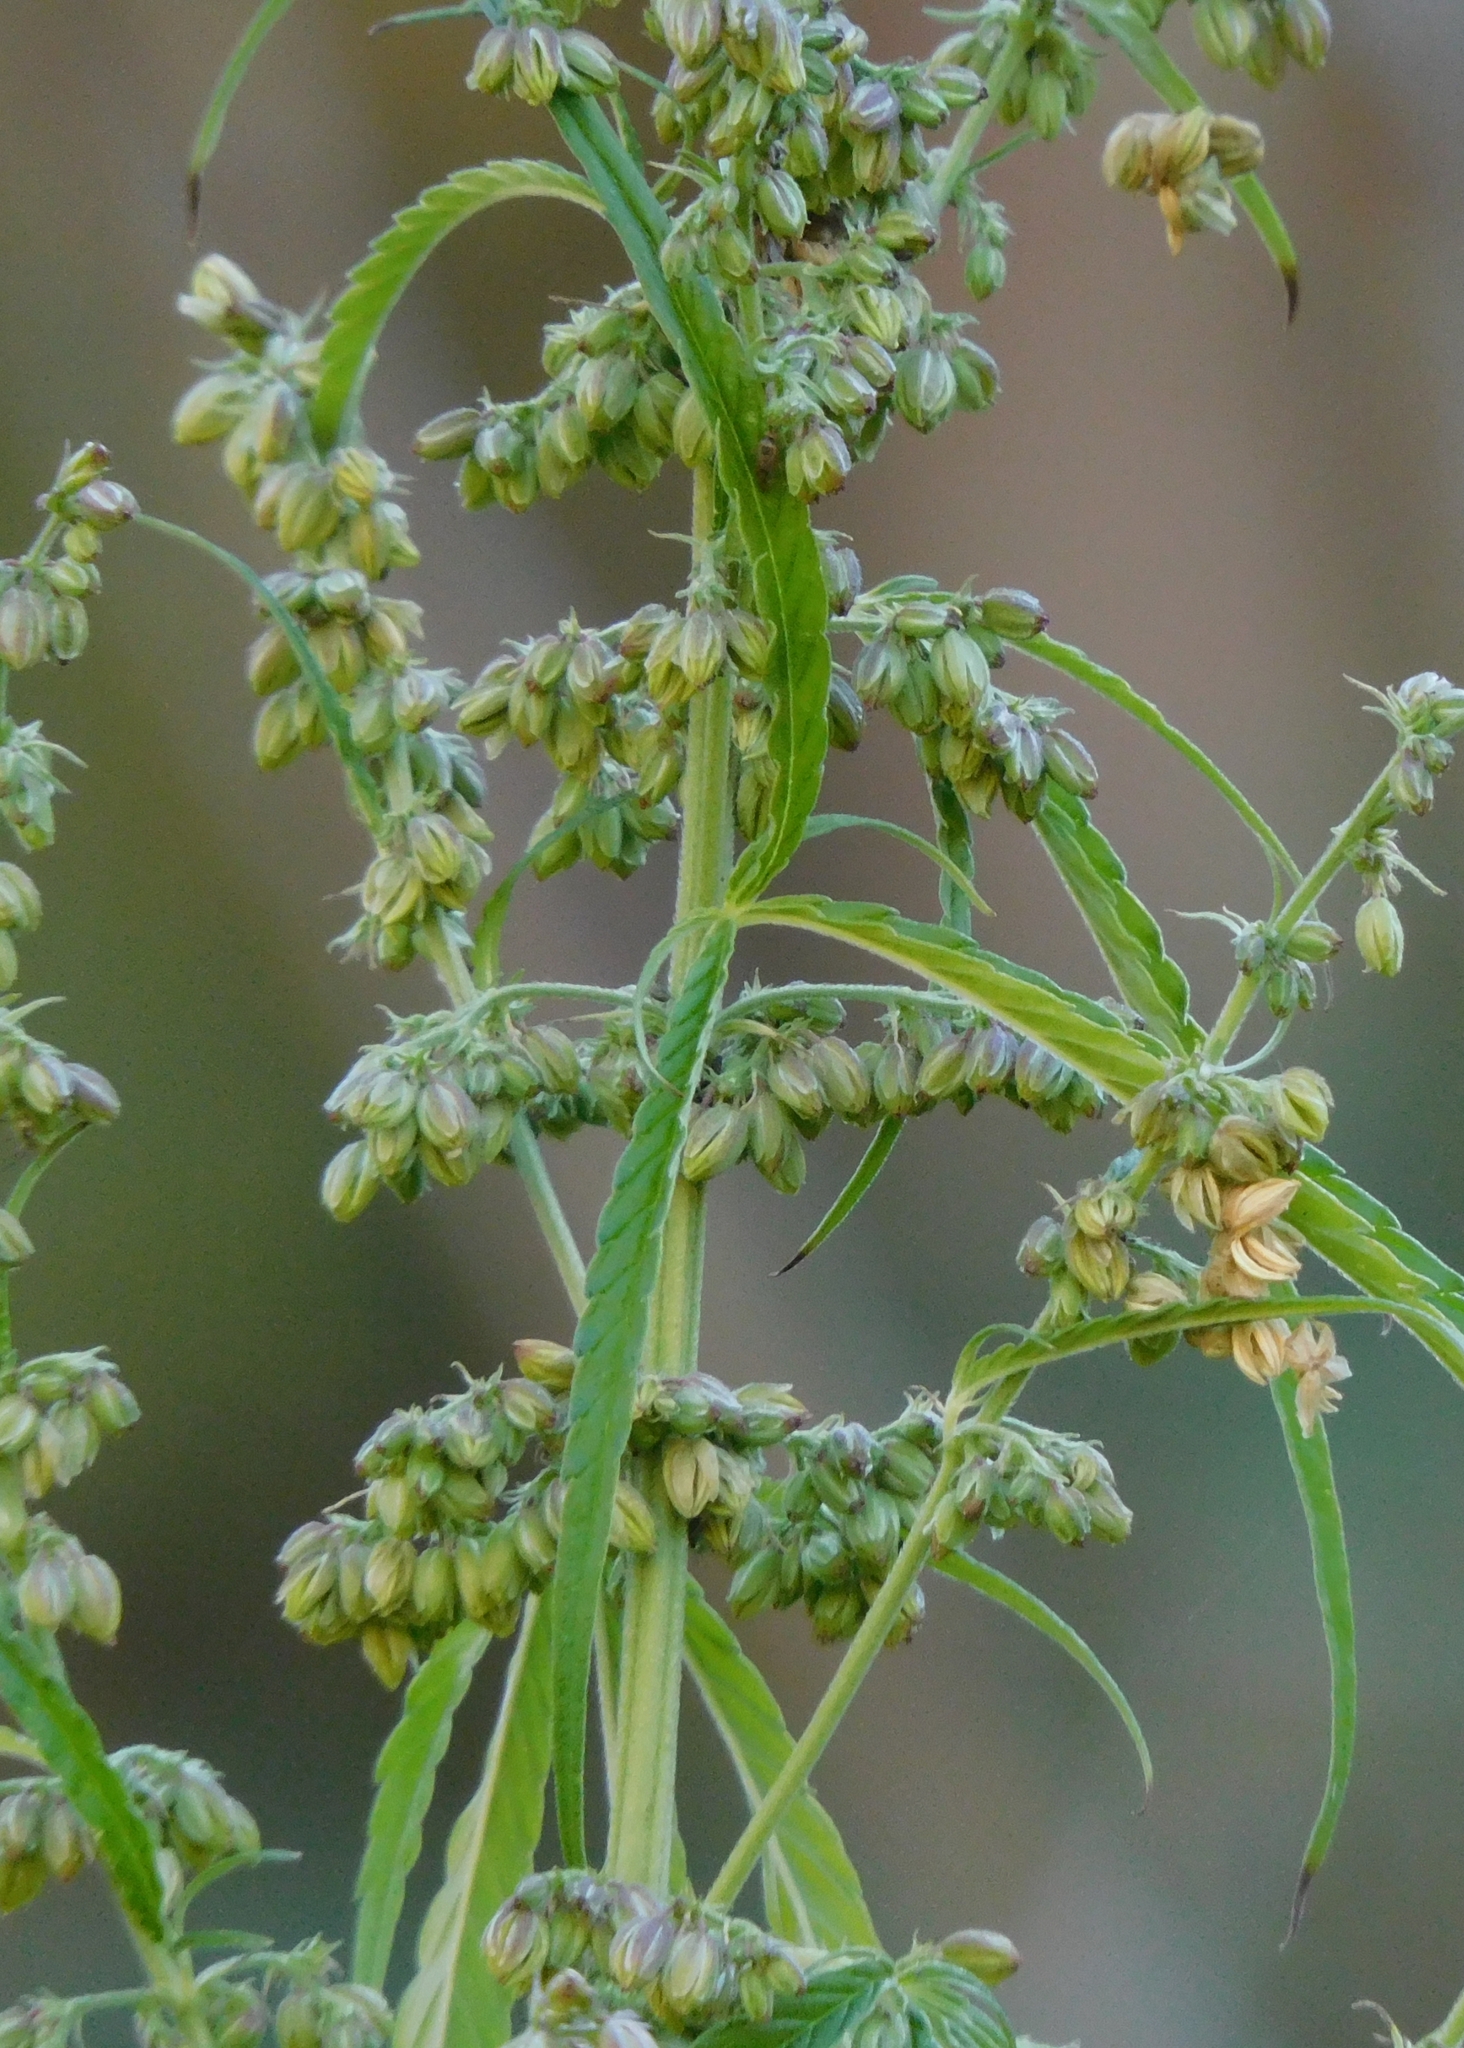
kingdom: Plantae
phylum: Tracheophyta
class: Magnoliopsida
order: Rosales
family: Cannabaceae
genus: Cannabis
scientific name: Cannabis sativa
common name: Hemp
